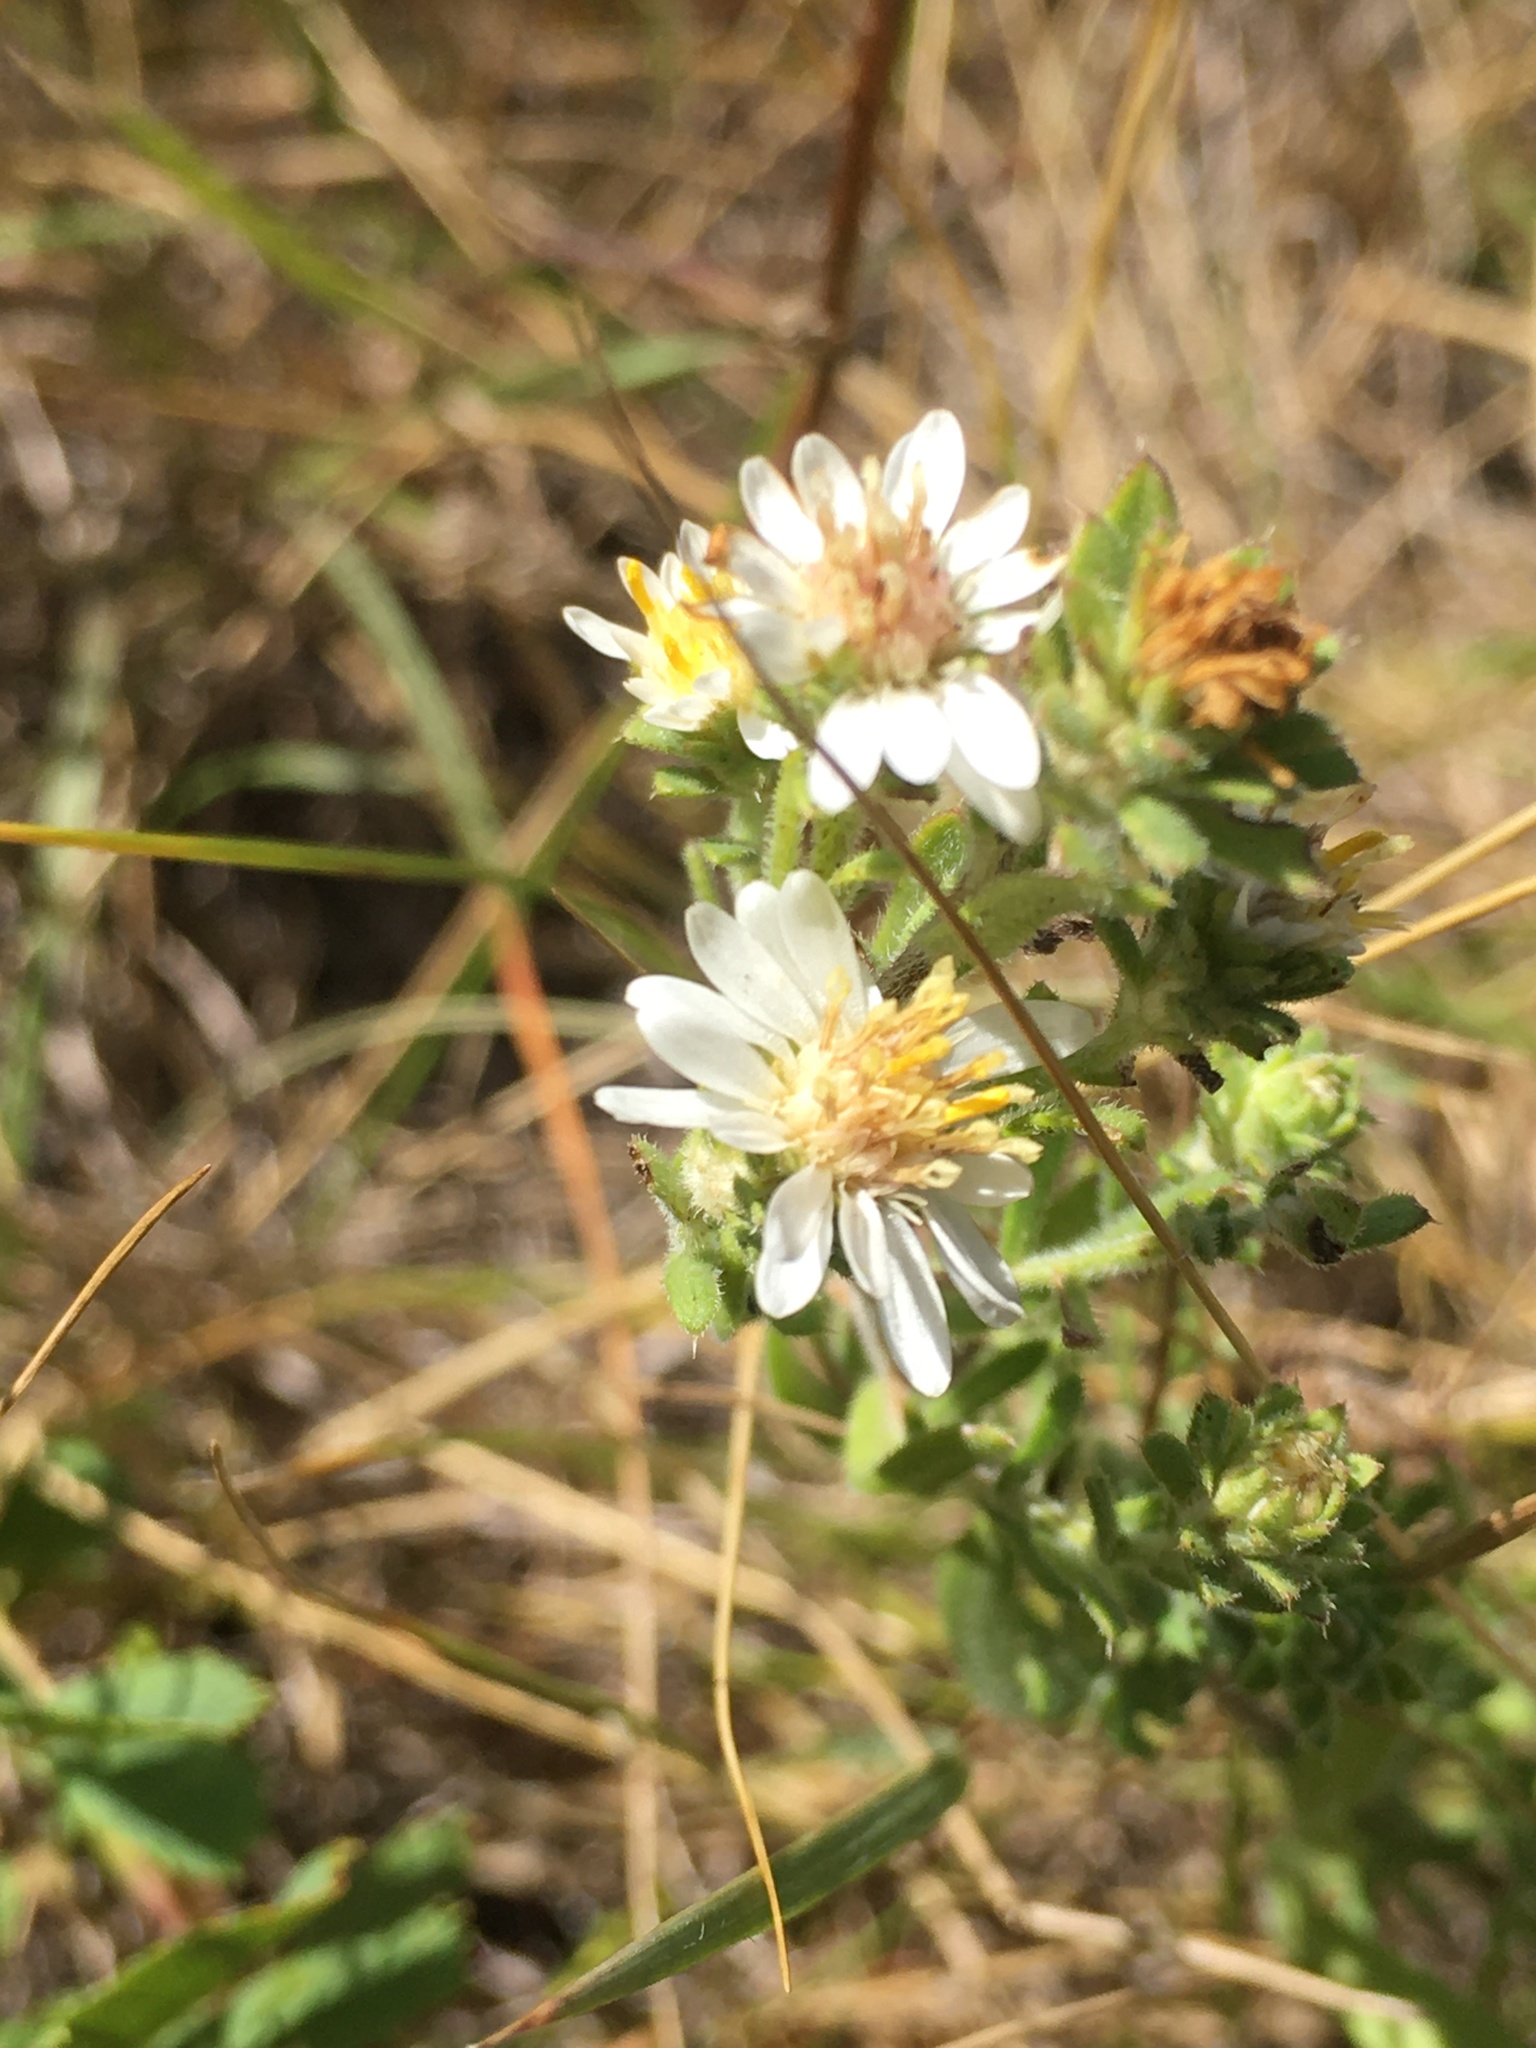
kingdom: Plantae
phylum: Tracheophyta
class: Magnoliopsida
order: Asterales
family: Asteraceae
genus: Symphyotrichum
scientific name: Symphyotrichum ericoides
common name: Heath aster
